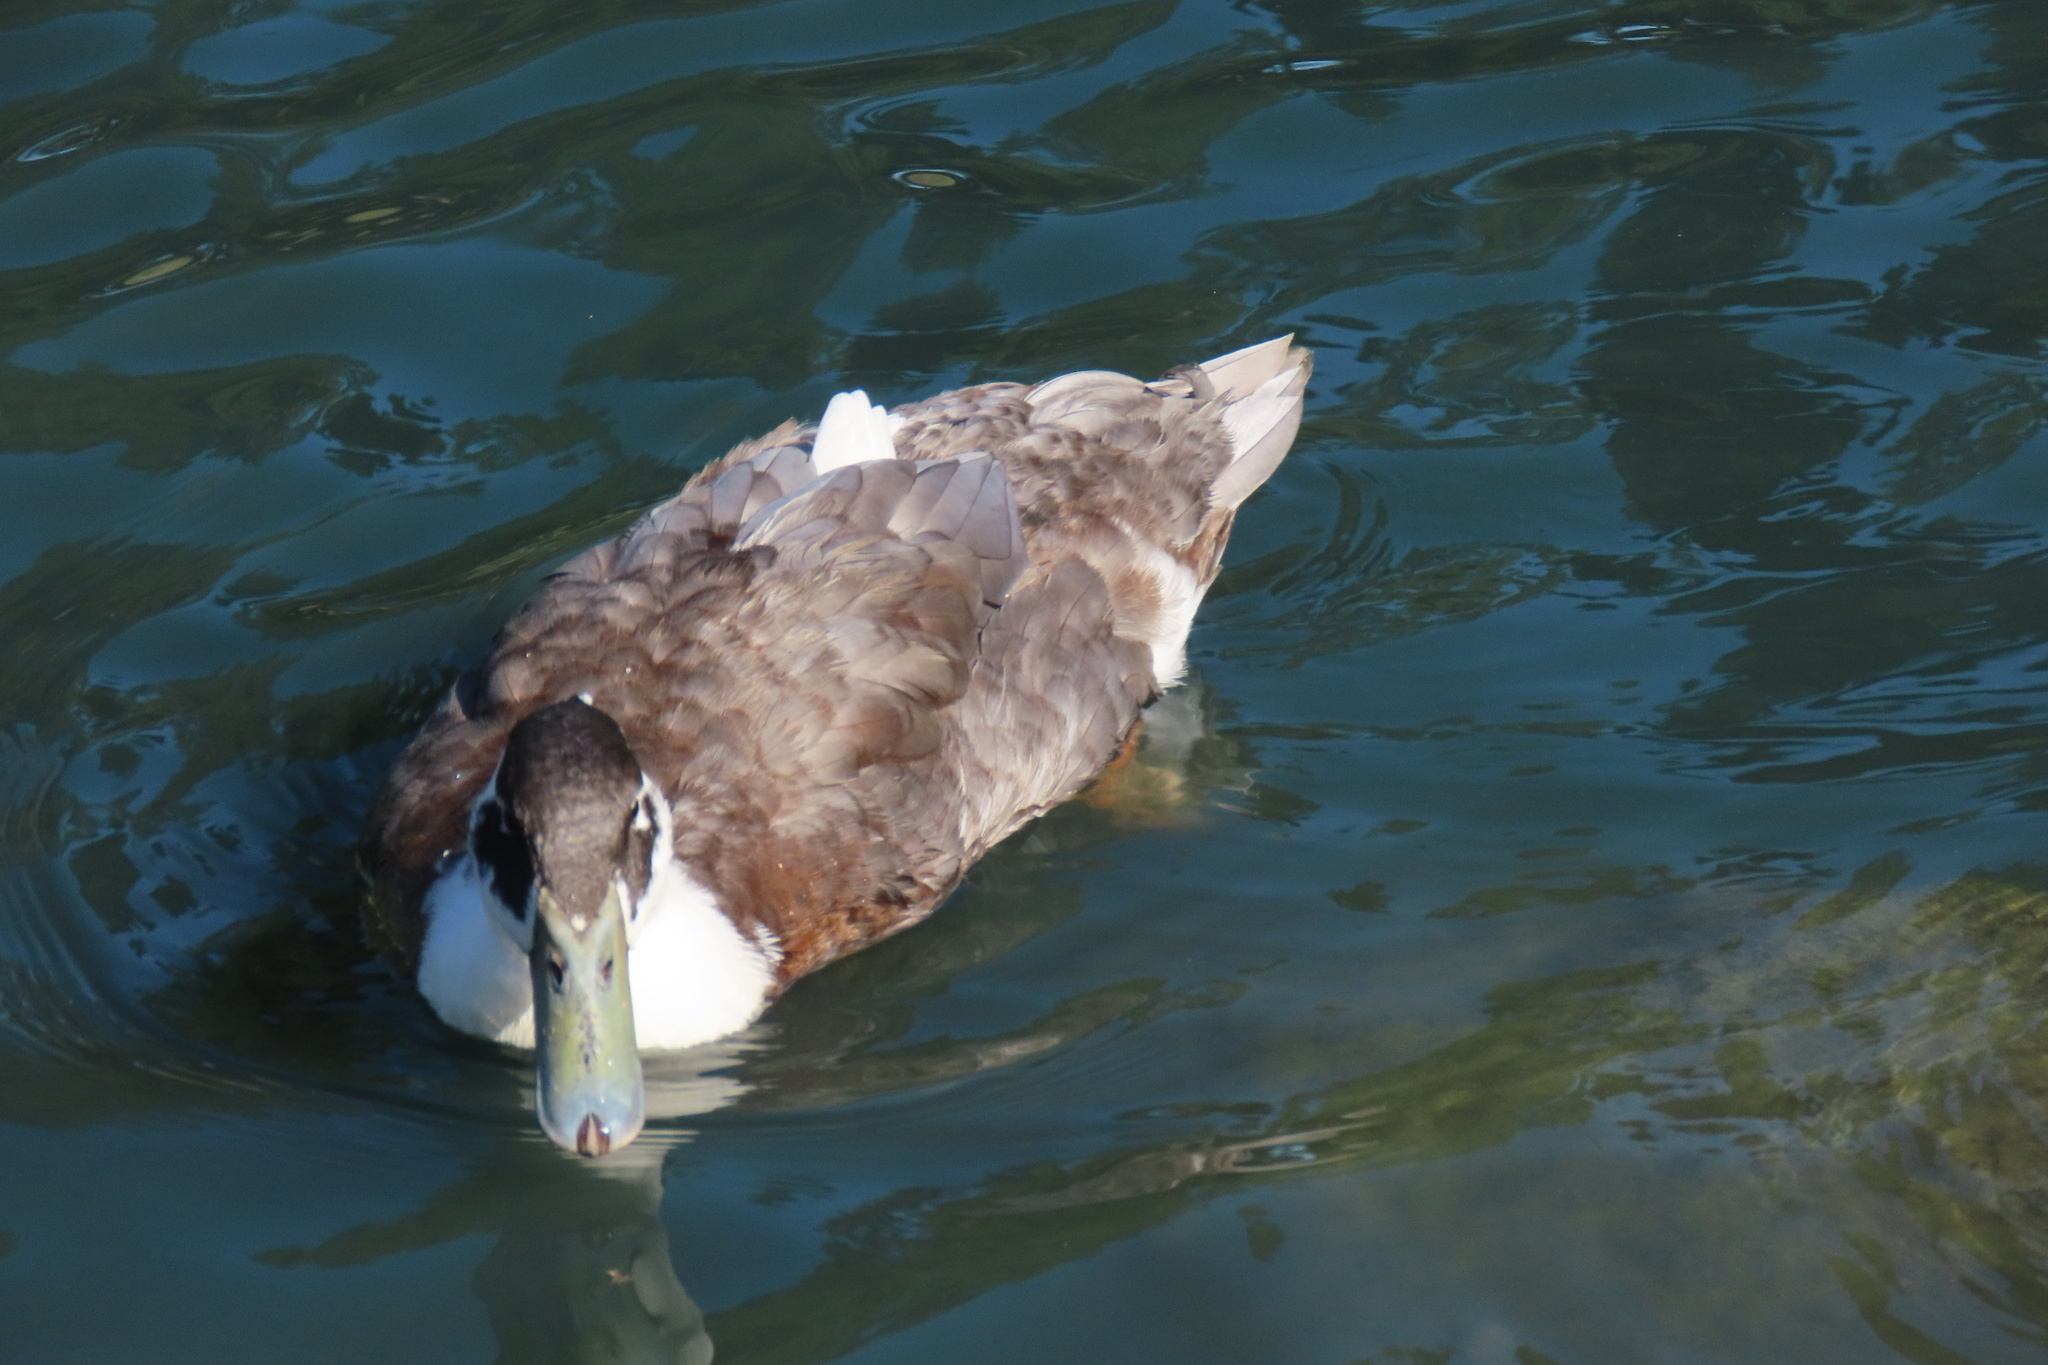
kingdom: Animalia
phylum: Chordata
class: Aves
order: Anseriformes
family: Anatidae
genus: Anas
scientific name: Anas platyrhynchos
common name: Mallard
